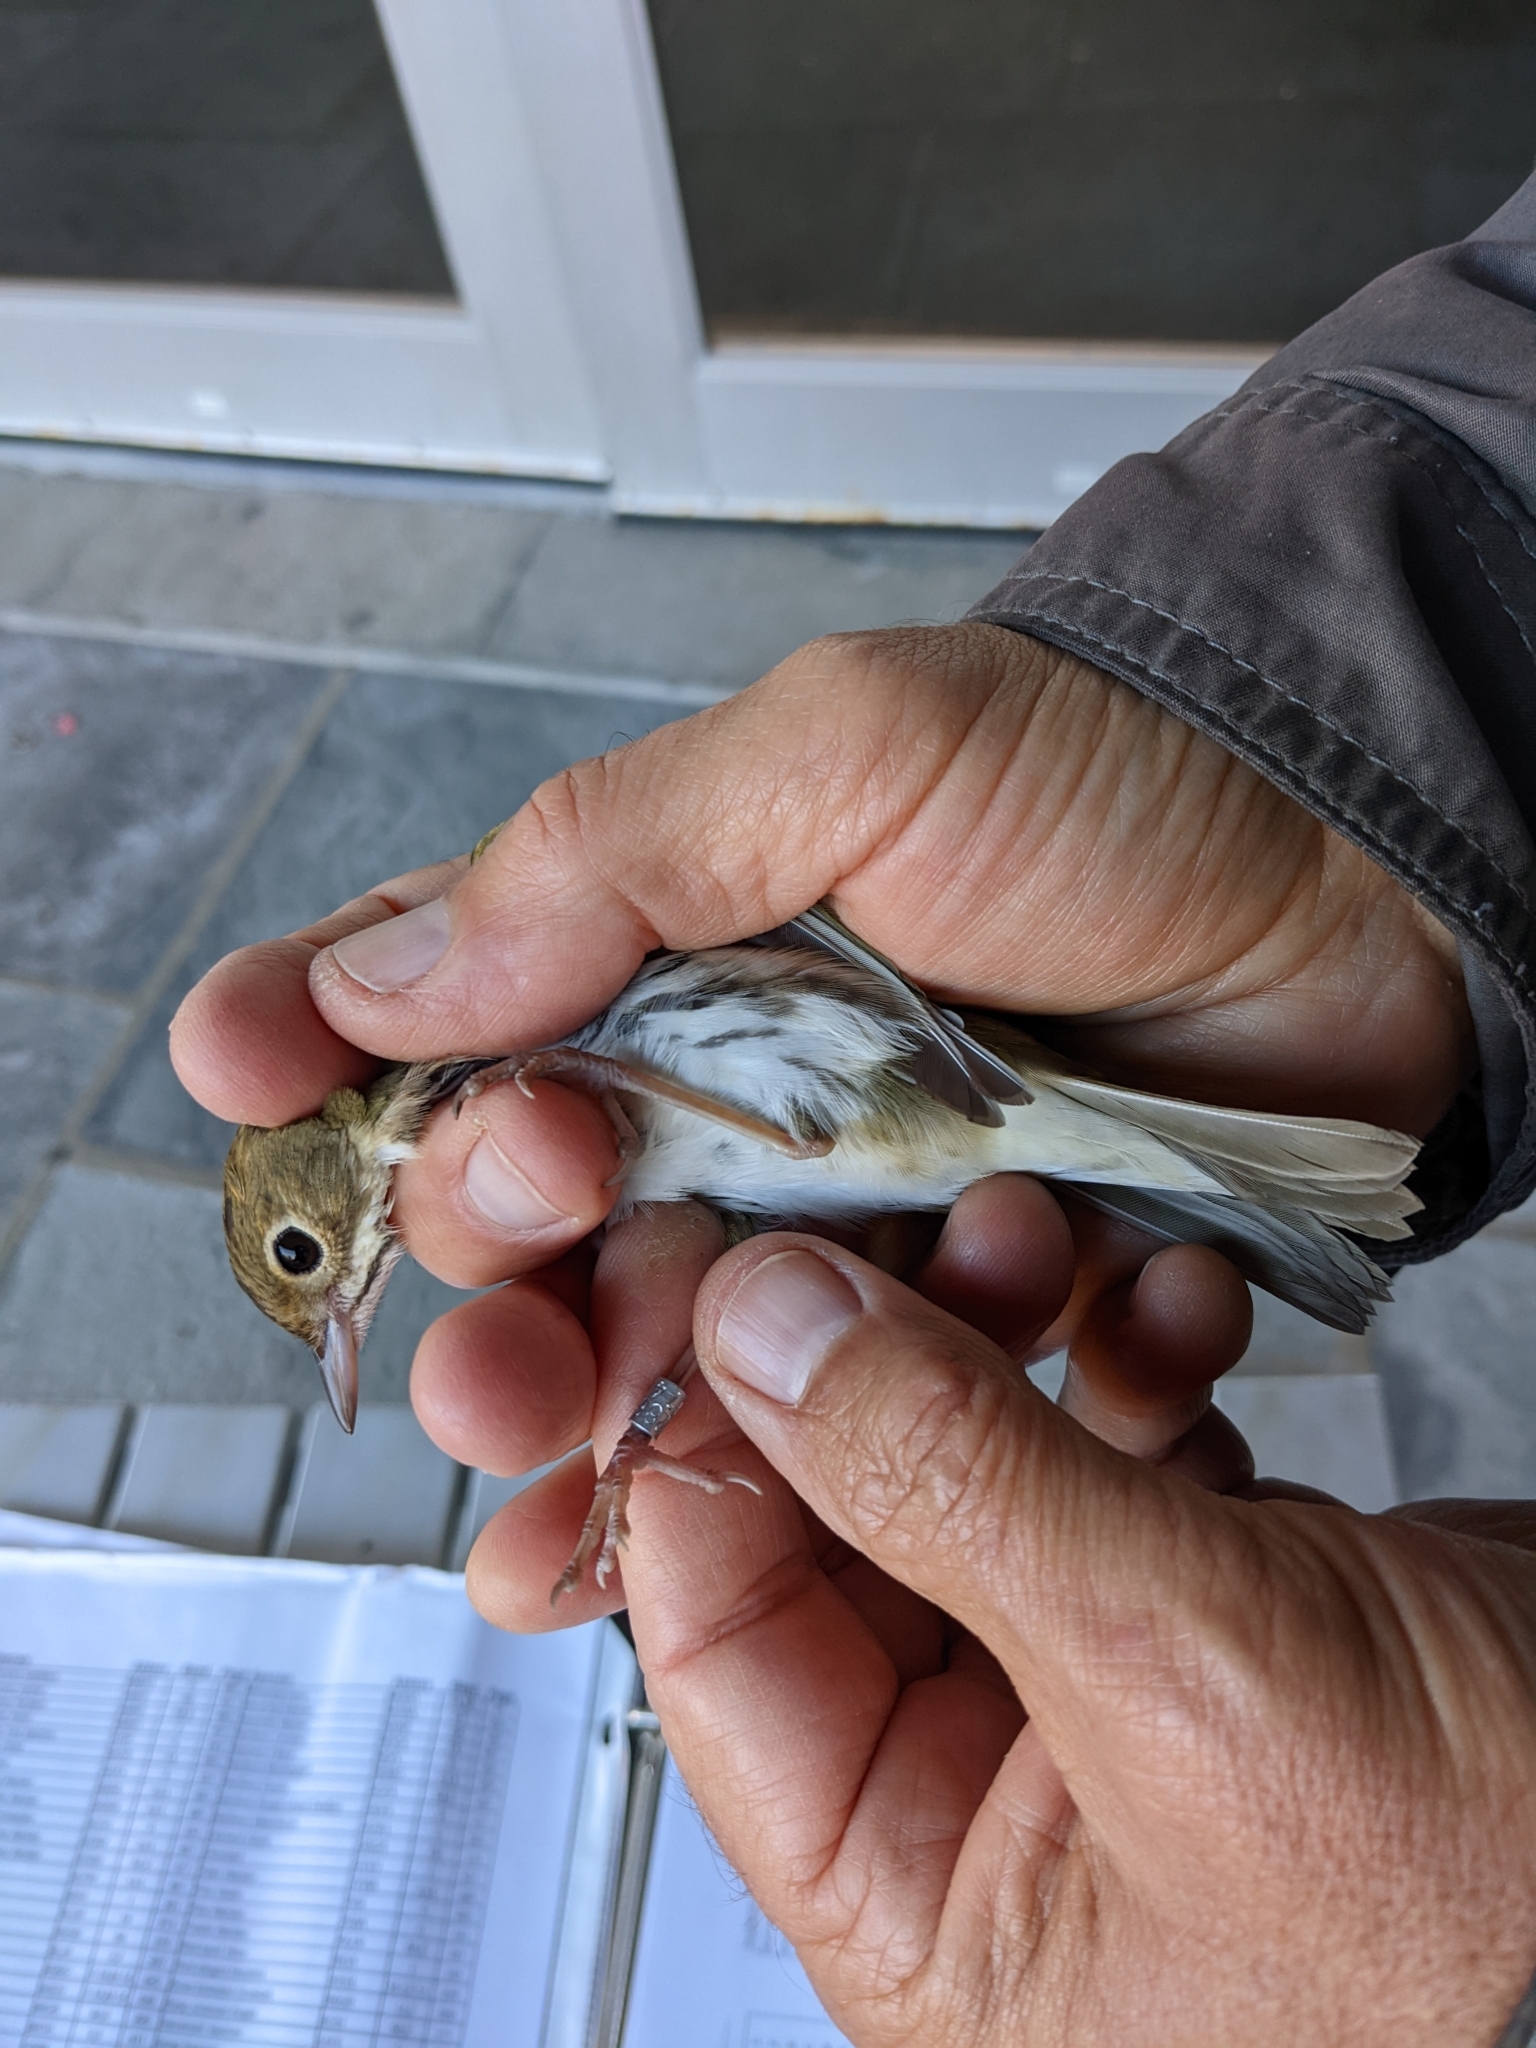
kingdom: Animalia
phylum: Chordata
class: Aves
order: Passeriformes
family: Parulidae
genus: Seiurus
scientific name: Seiurus aurocapilla
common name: Ovenbird
